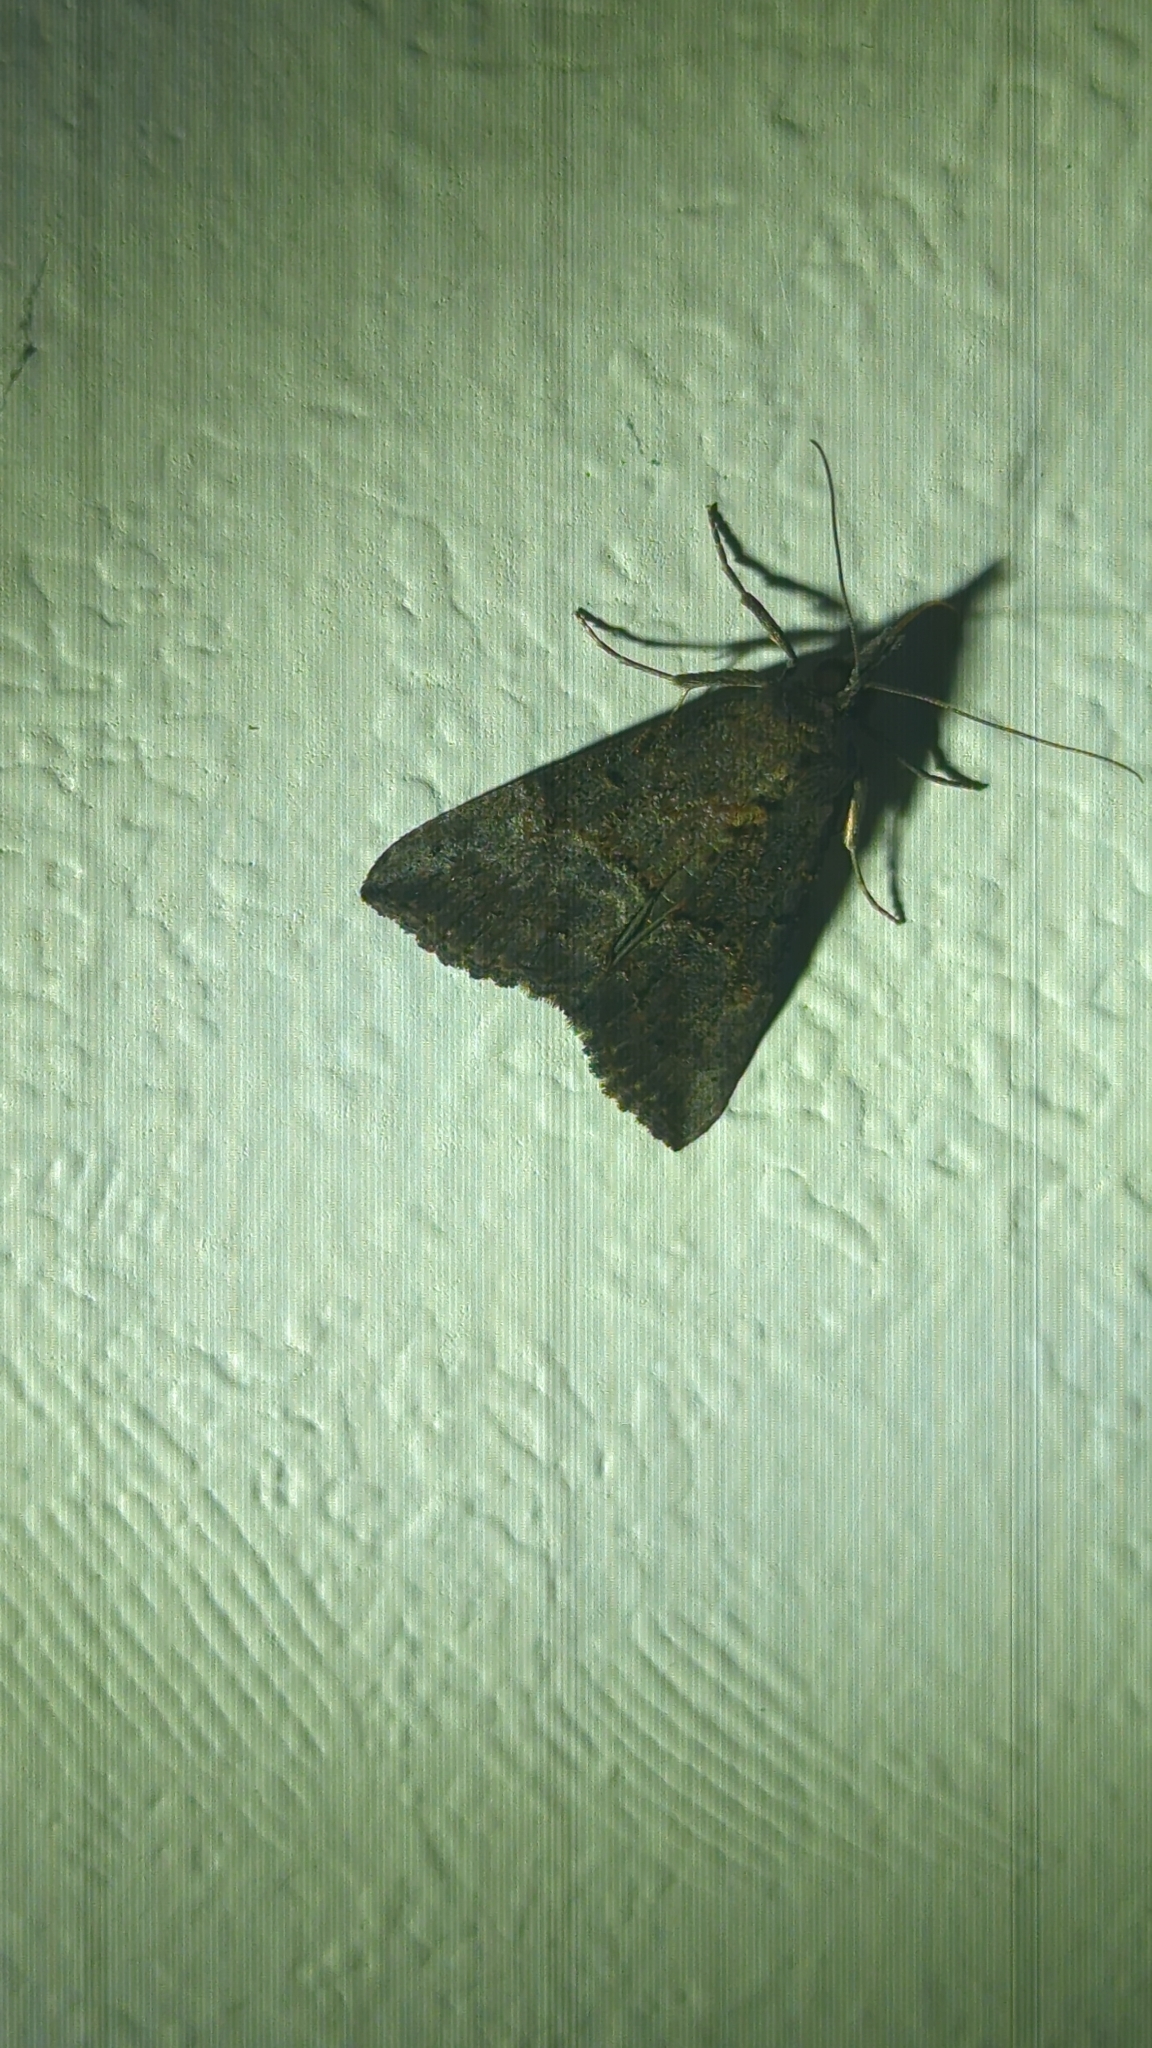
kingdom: Animalia
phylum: Arthropoda
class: Insecta
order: Lepidoptera
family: Erebidae
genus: Hypena
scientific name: Hypena scabra
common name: Green cloverworm
